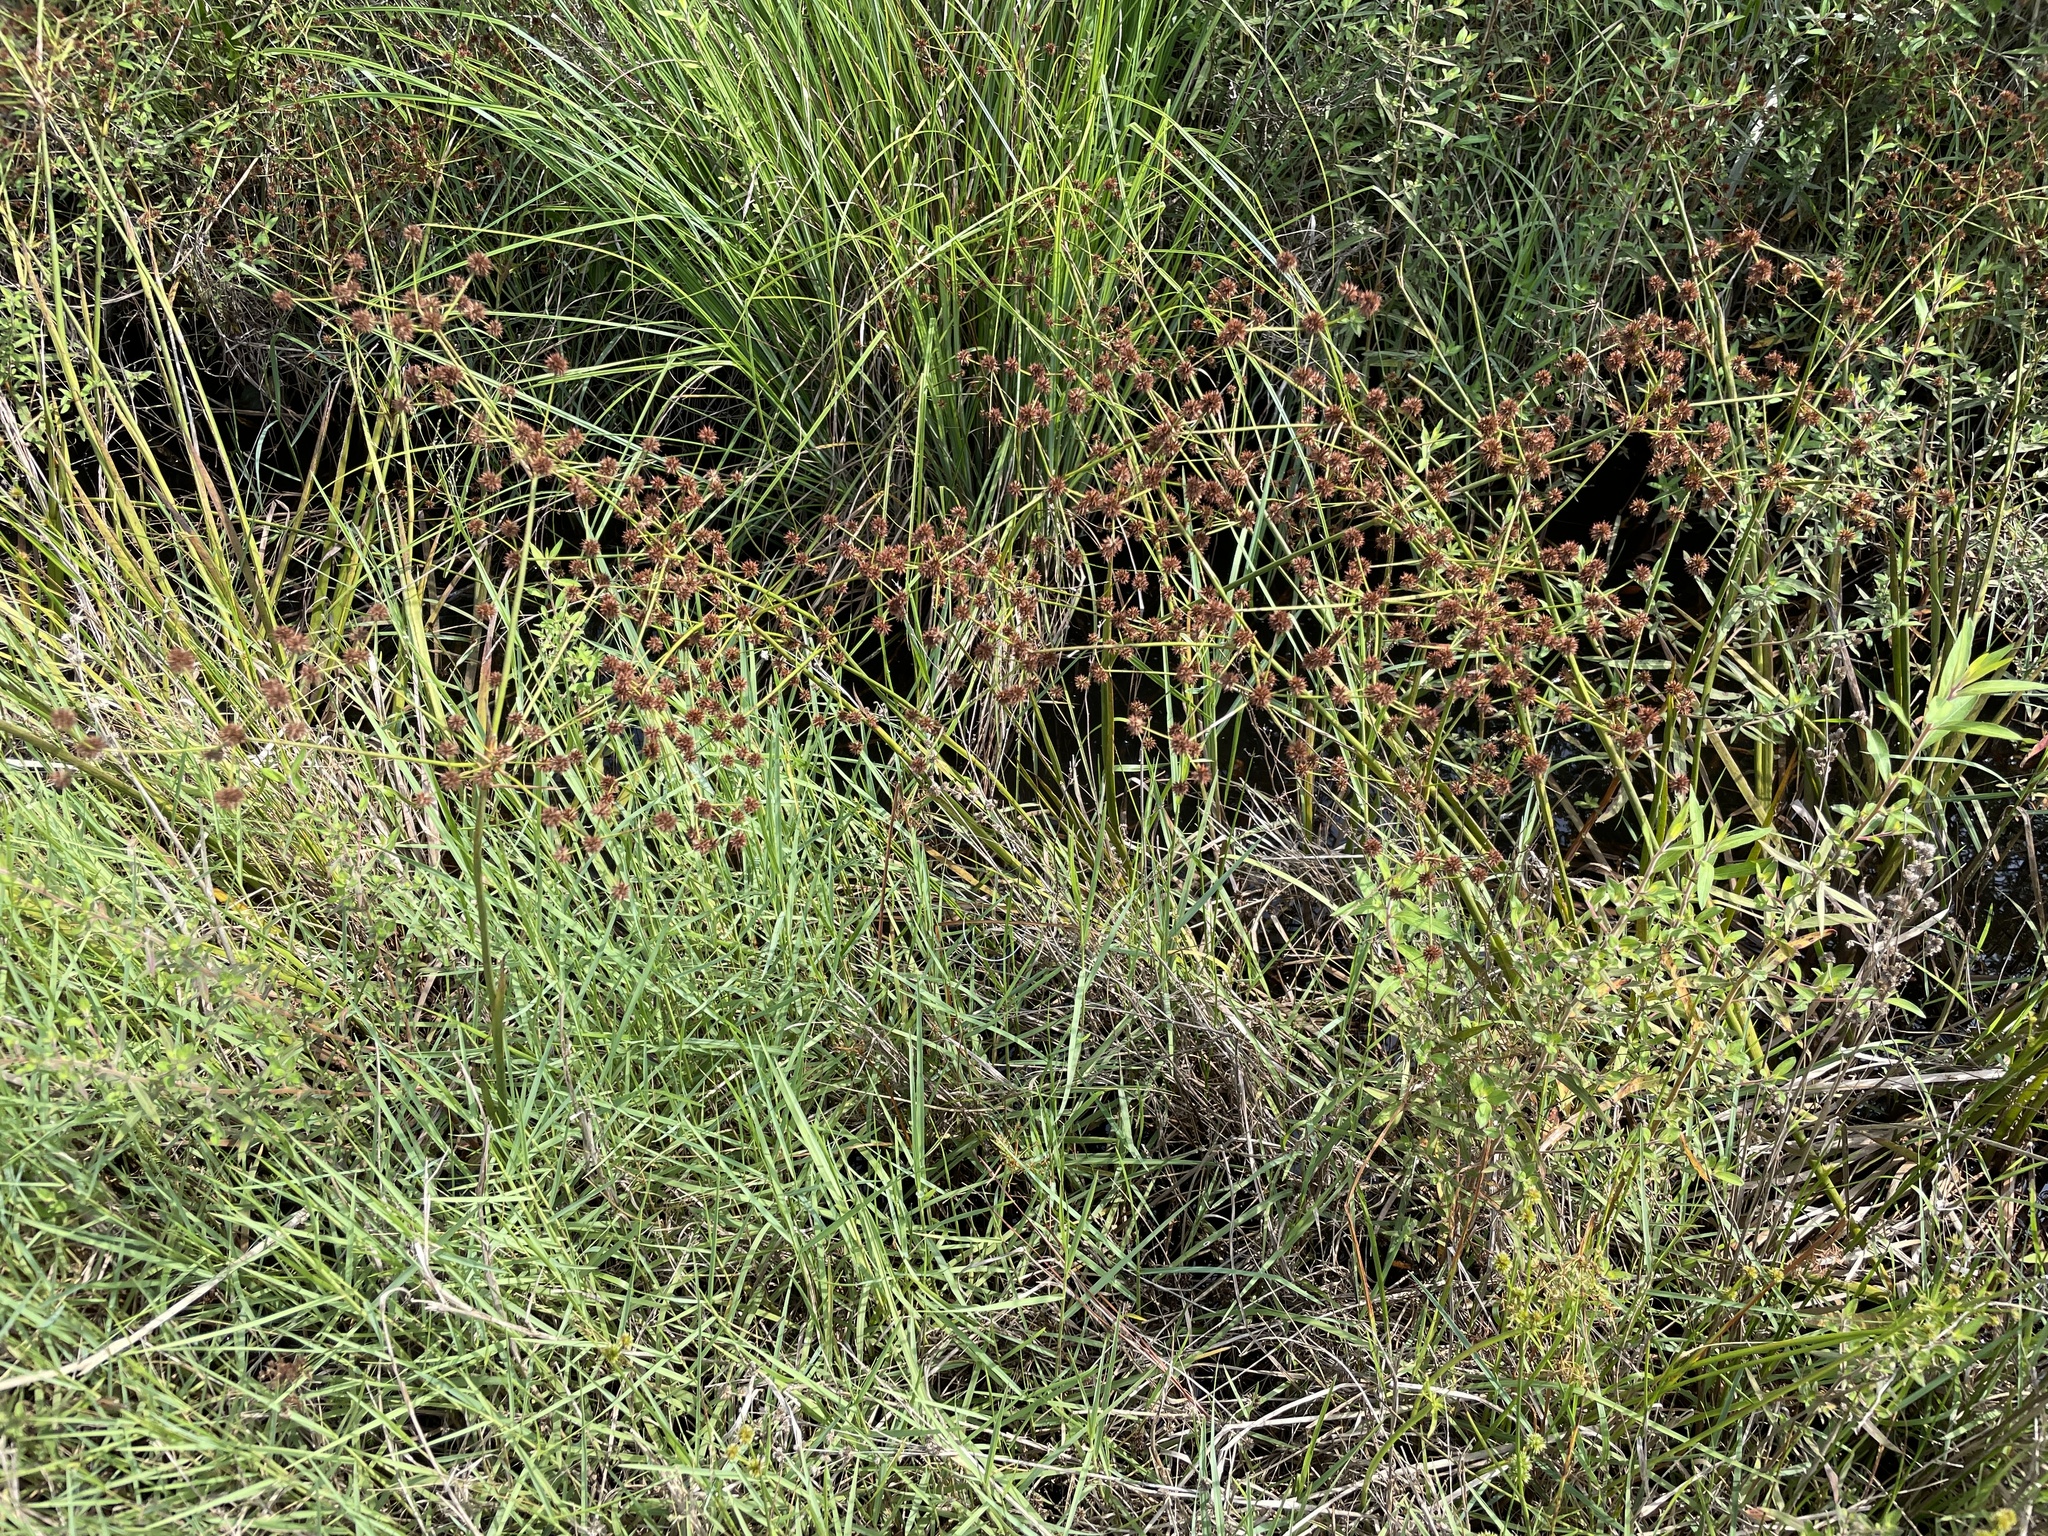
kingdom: Plantae
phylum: Tracheophyta
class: Liliopsida
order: Poales
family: Juncaceae
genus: Juncus
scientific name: Juncus polycephalus
